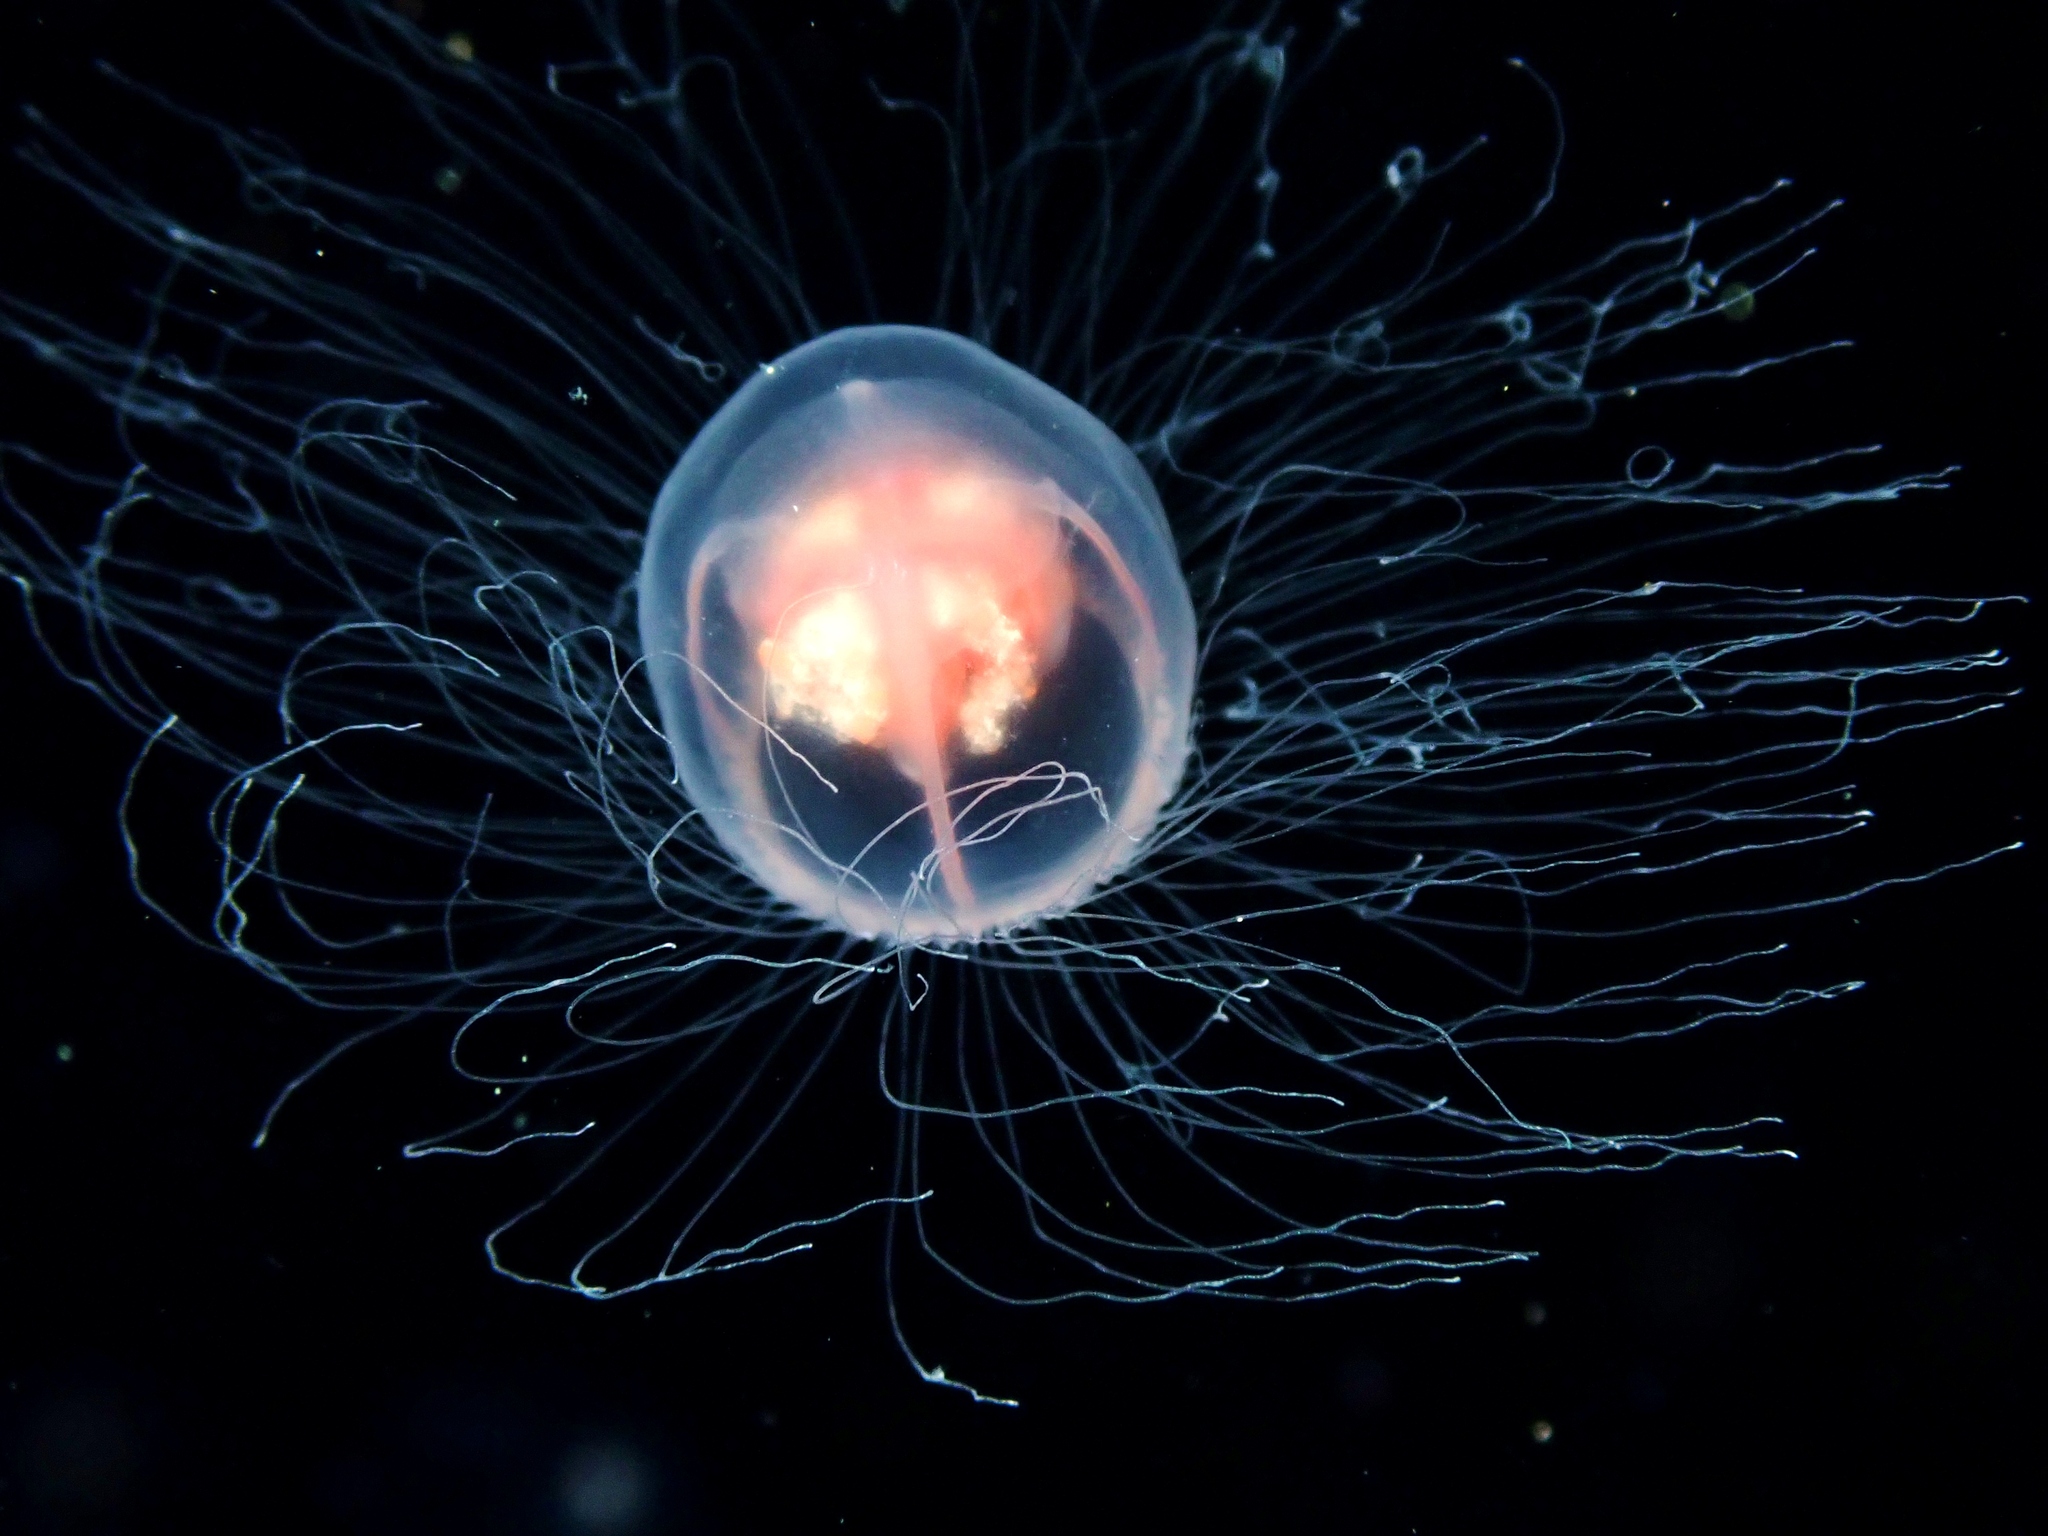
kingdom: Animalia
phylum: Cnidaria
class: Hydrozoa
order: Anthoathecata
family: Oceaniidae
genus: Turritopsis
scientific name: Turritopsis rubra
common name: Crimson jelly
